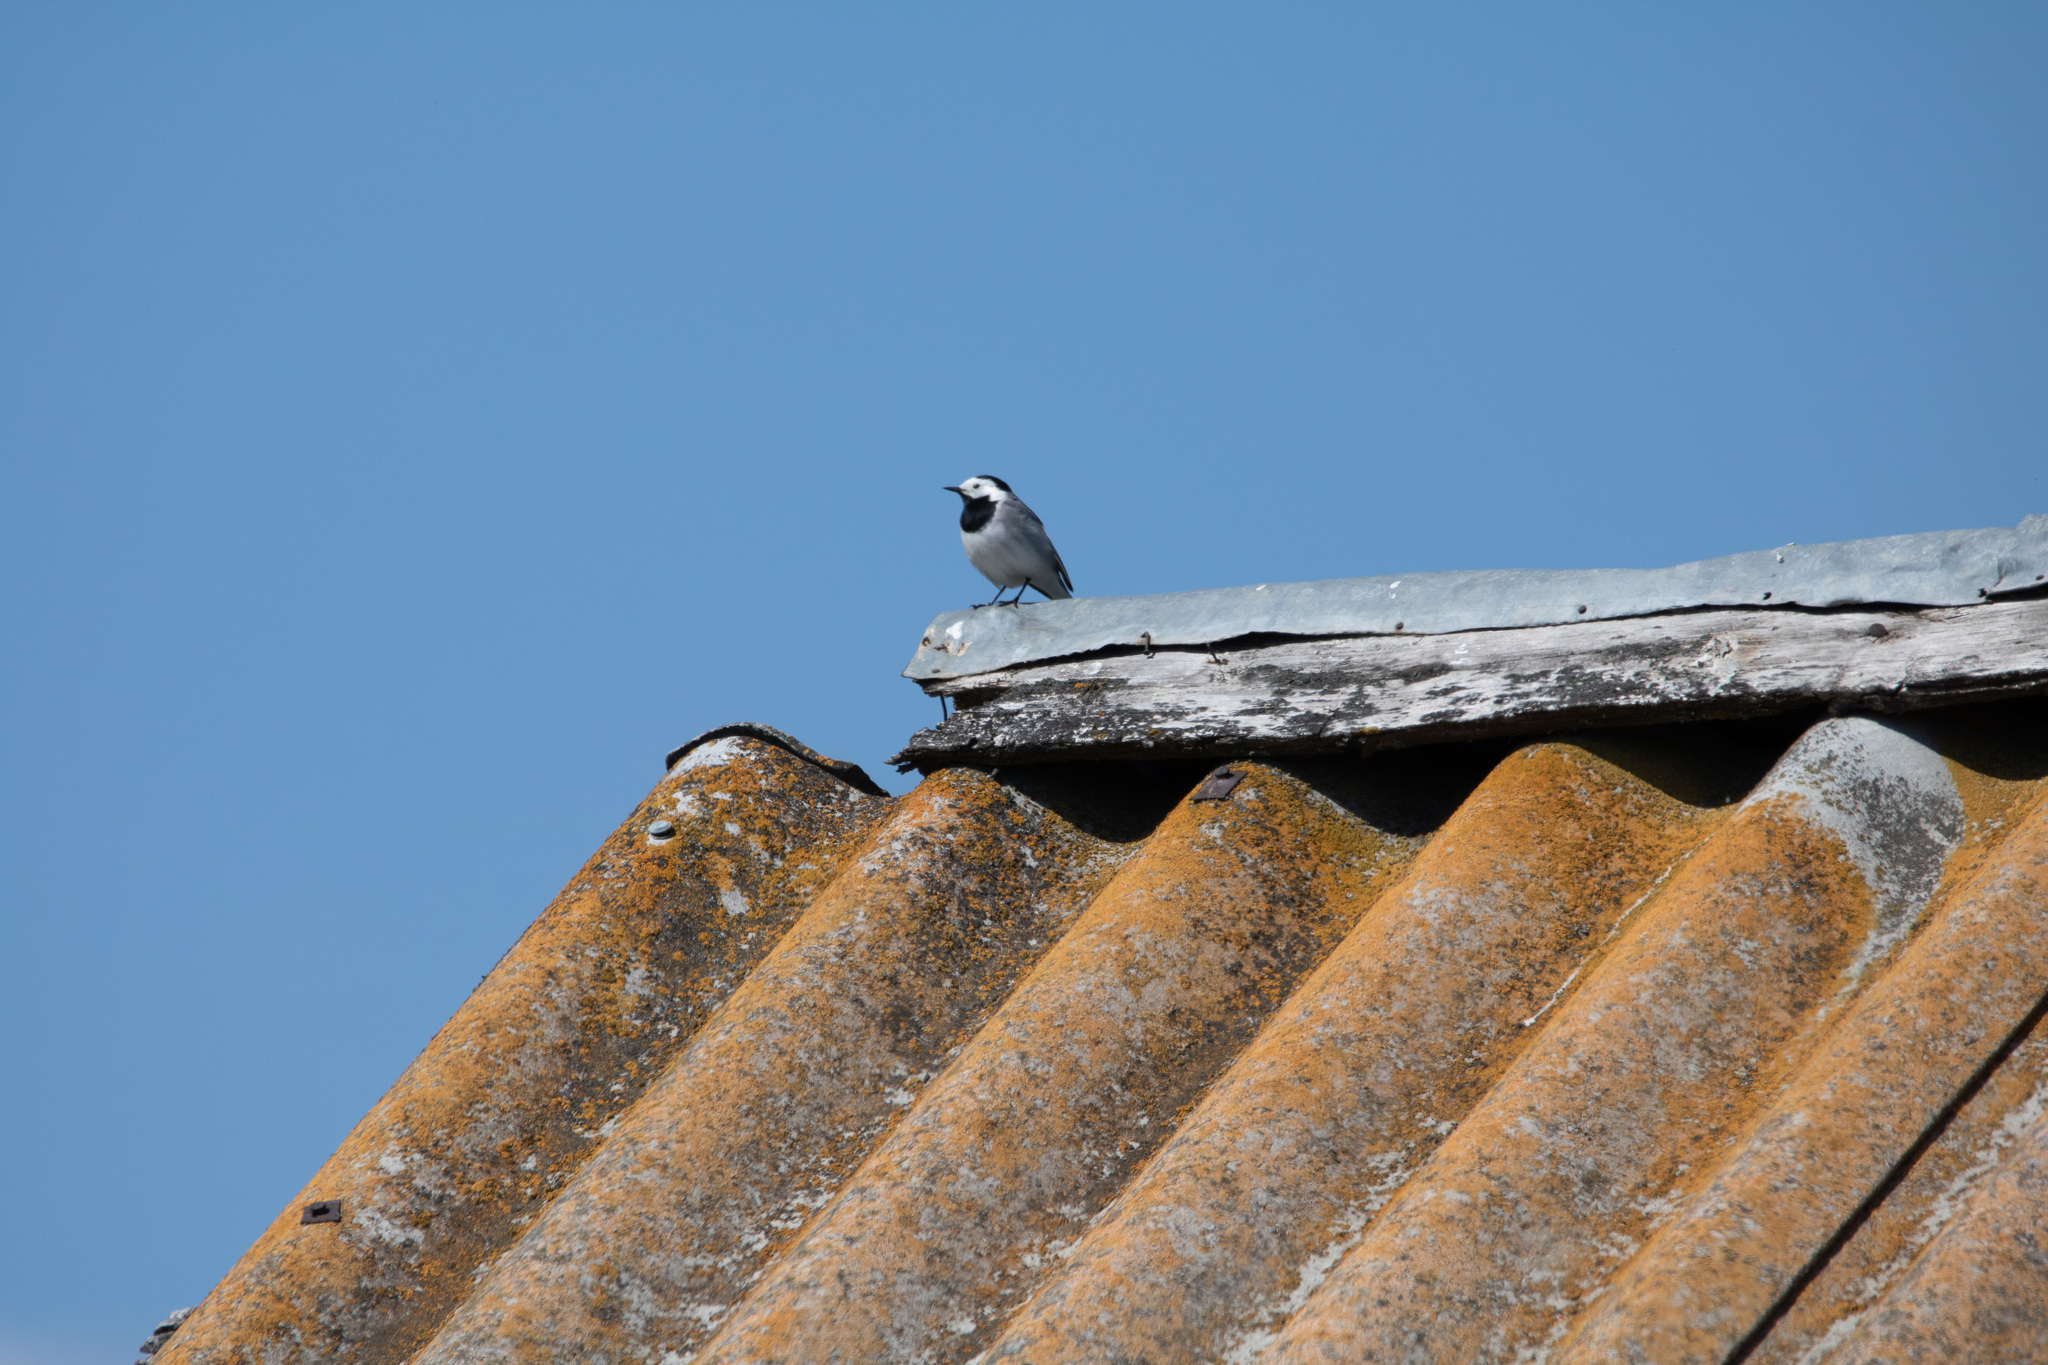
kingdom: Animalia
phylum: Chordata
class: Aves
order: Passeriformes
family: Motacillidae
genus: Motacilla
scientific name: Motacilla alba
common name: White wagtail
